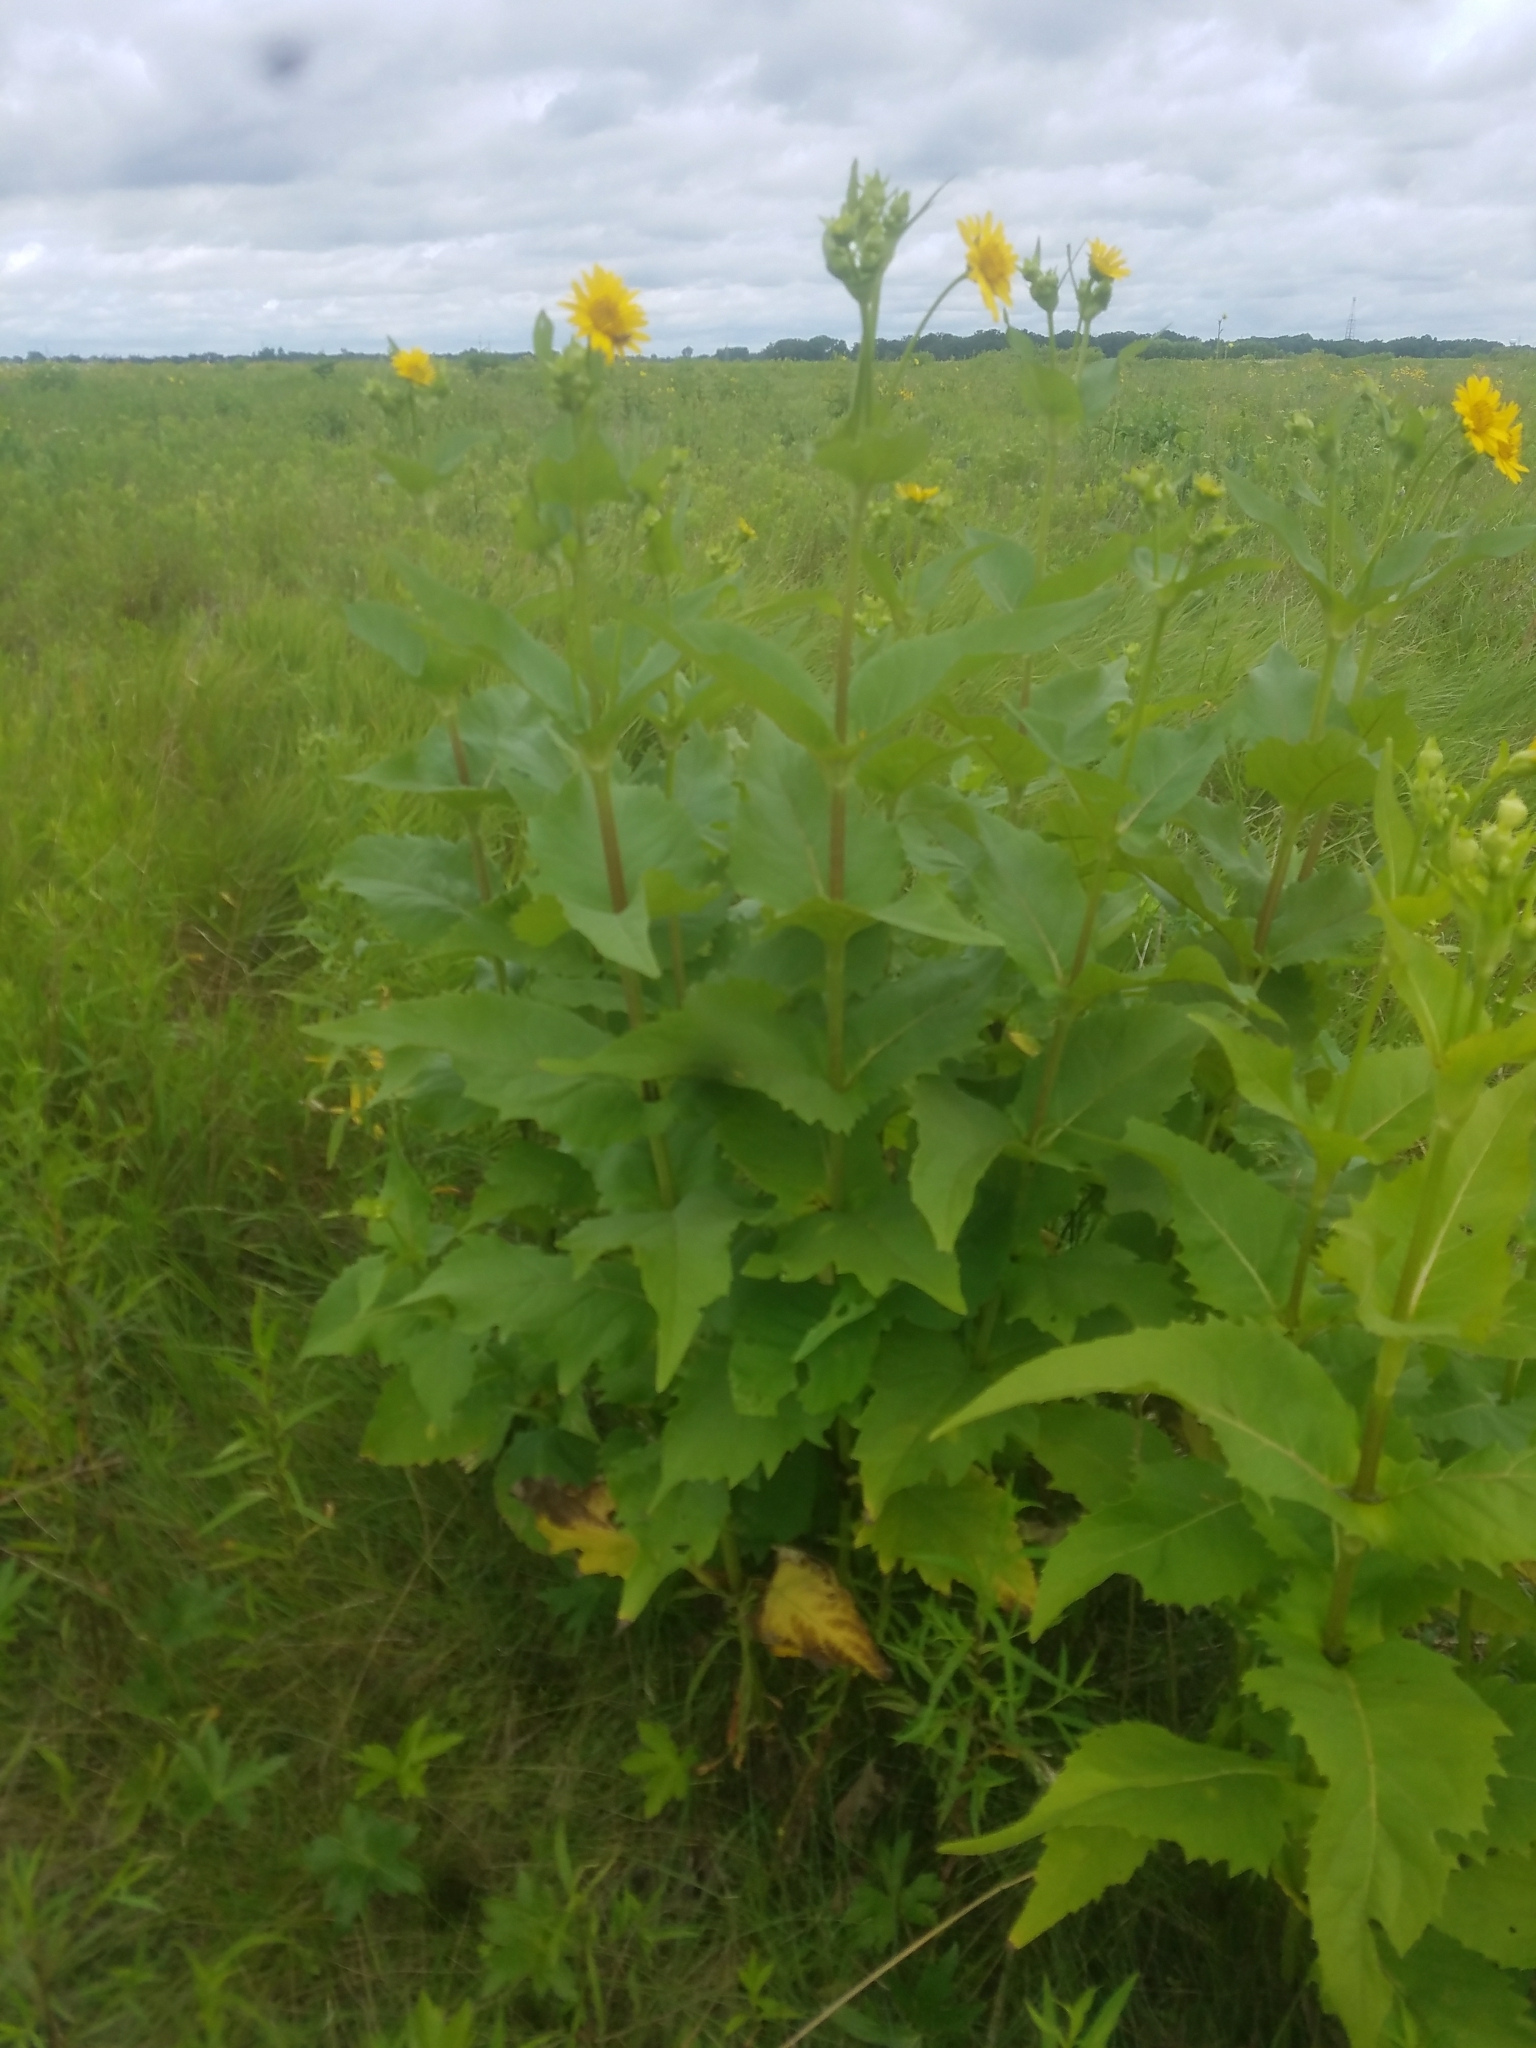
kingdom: Plantae
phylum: Tracheophyta
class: Magnoliopsida
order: Asterales
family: Asteraceae
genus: Silphium
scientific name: Silphium perfoliatum
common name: Cup-plant
